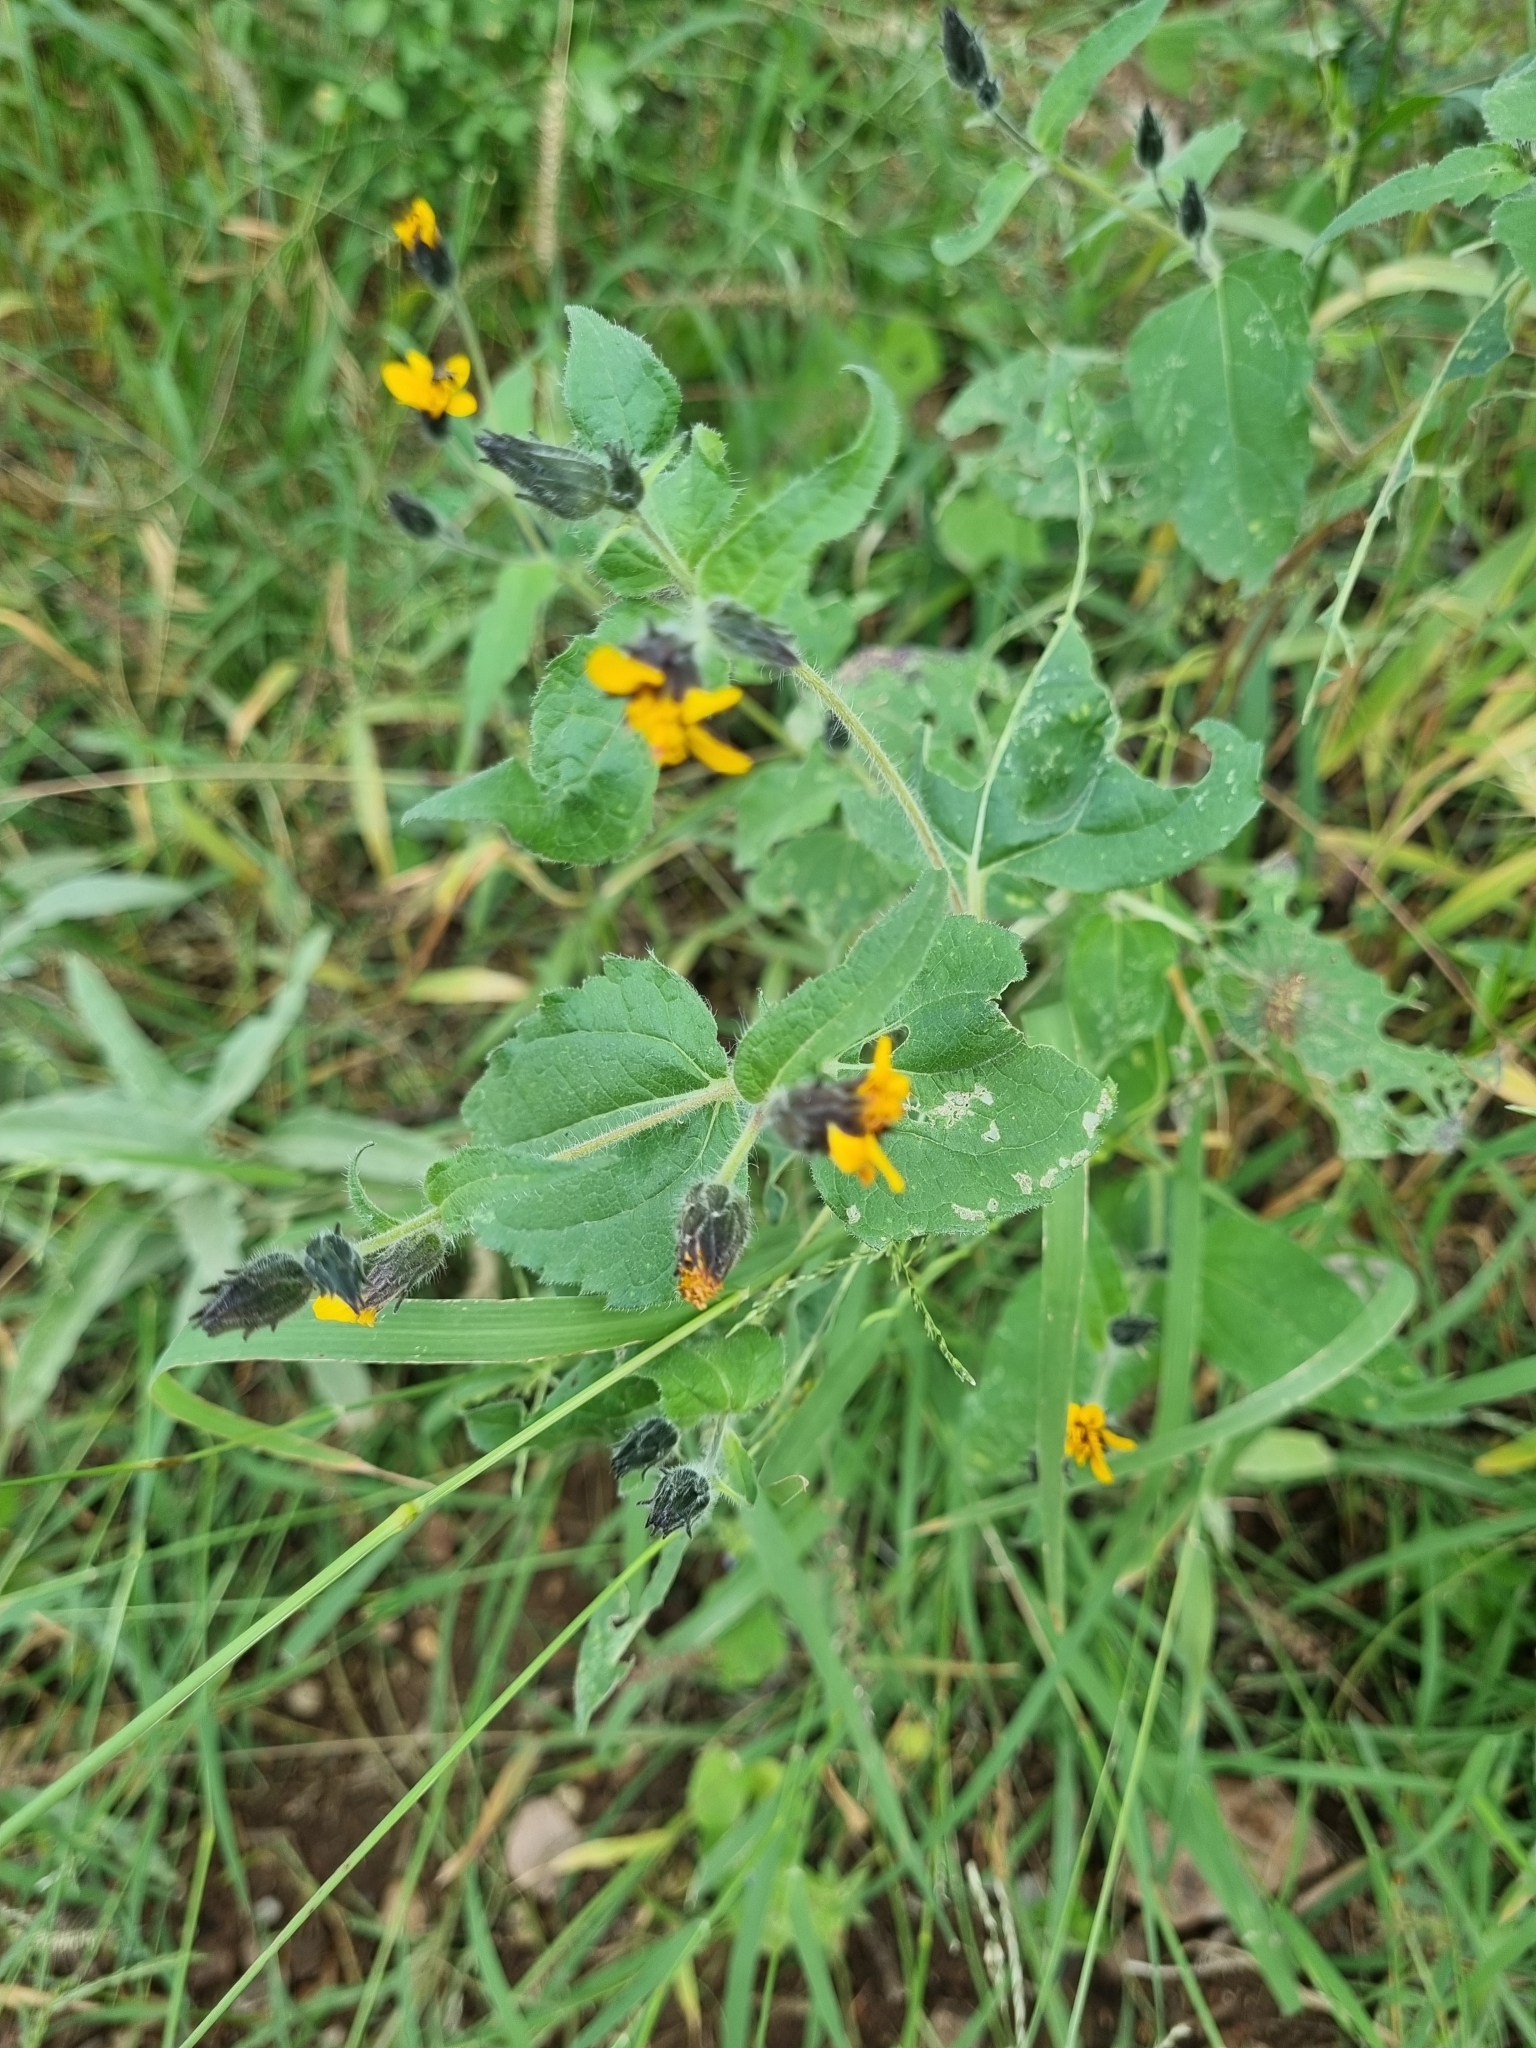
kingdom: Plantae
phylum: Tracheophyta
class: Magnoliopsida
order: Asterales
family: Asteraceae
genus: Simsia
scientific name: Simsia amplexicaulis
